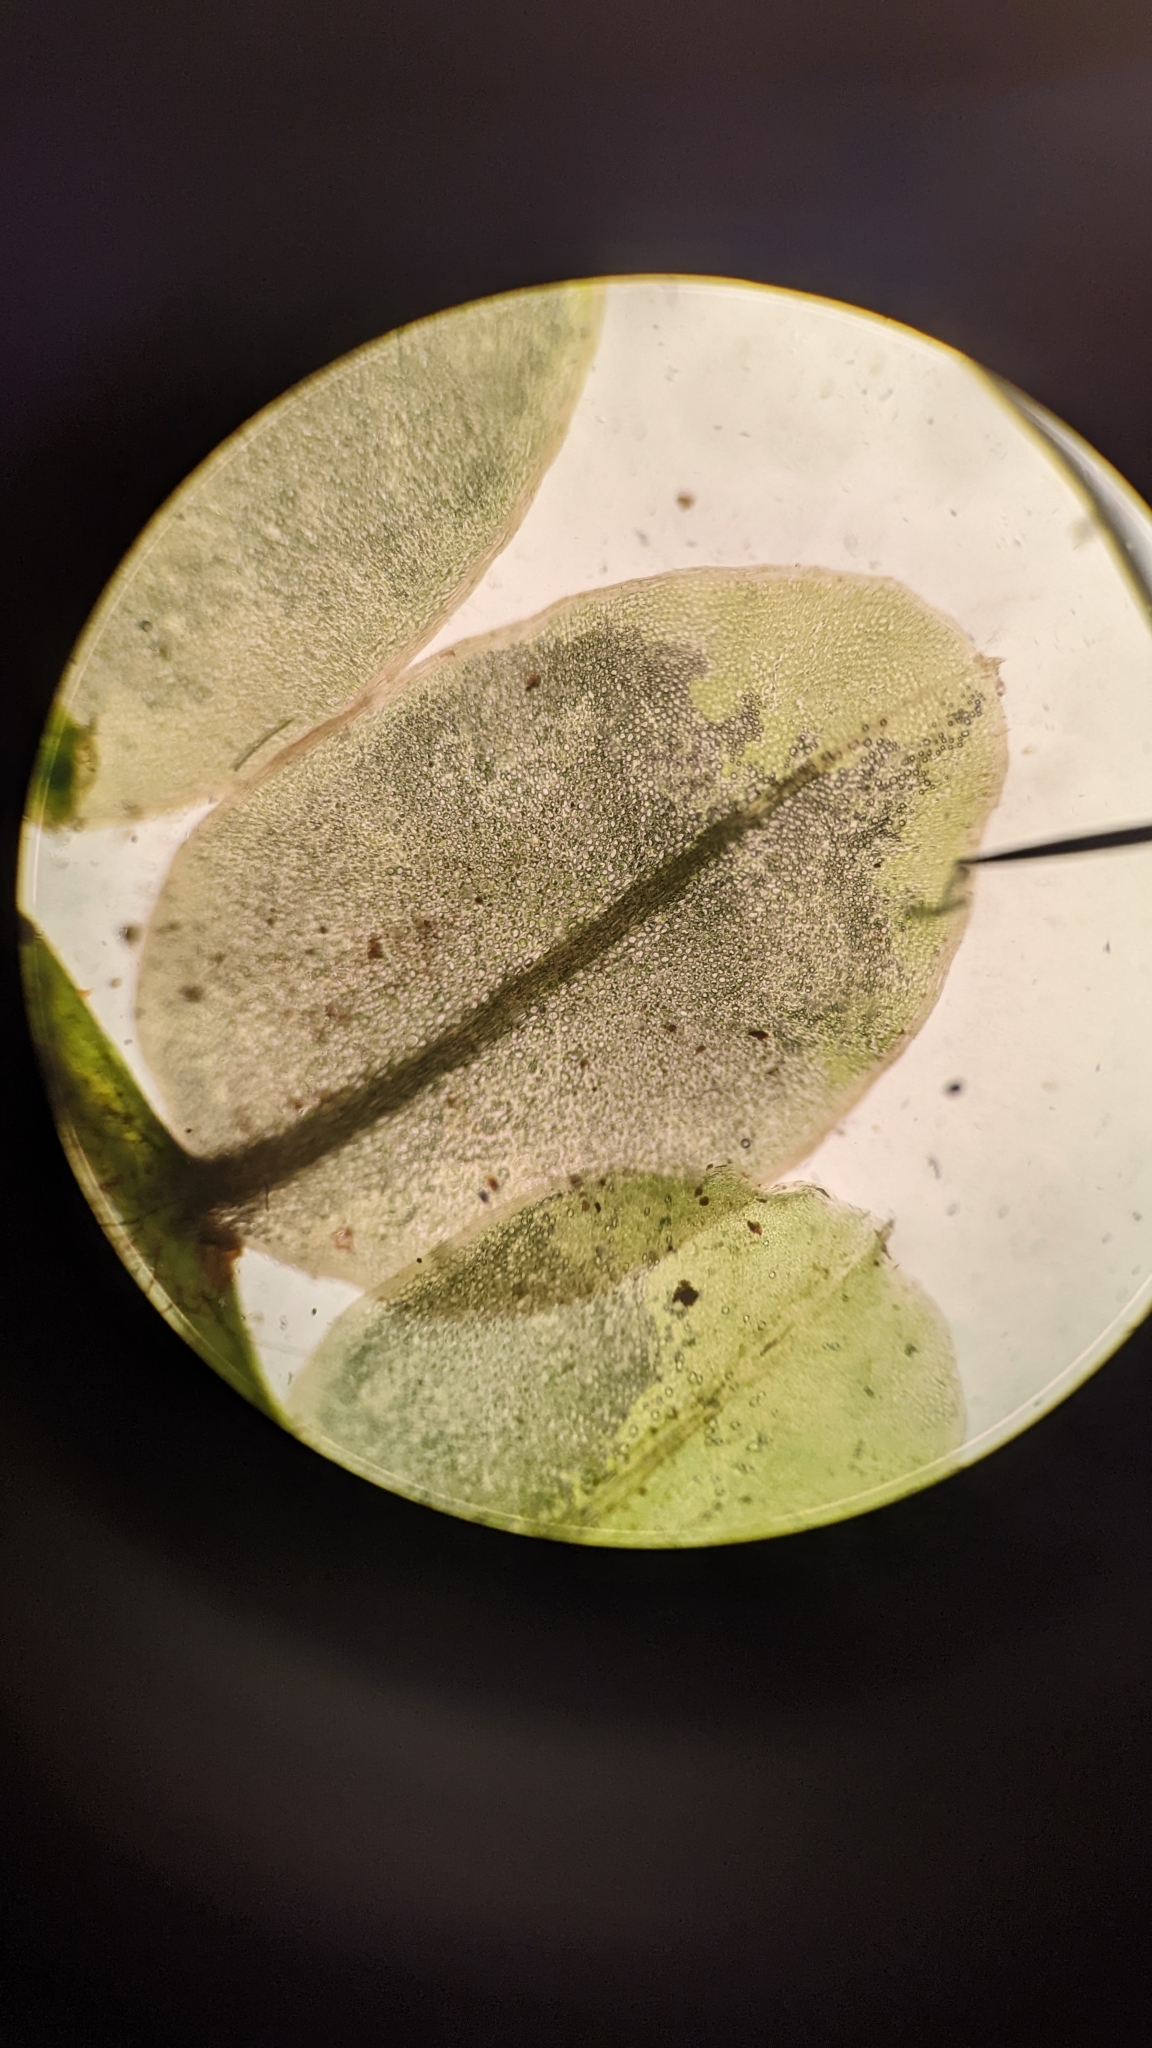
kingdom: Plantae
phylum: Bryophyta
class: Bryopsida
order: Bryales
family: Mniaceae
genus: Rhizomnium
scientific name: Rhizomnium punctatum
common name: Dotted leafy moss
